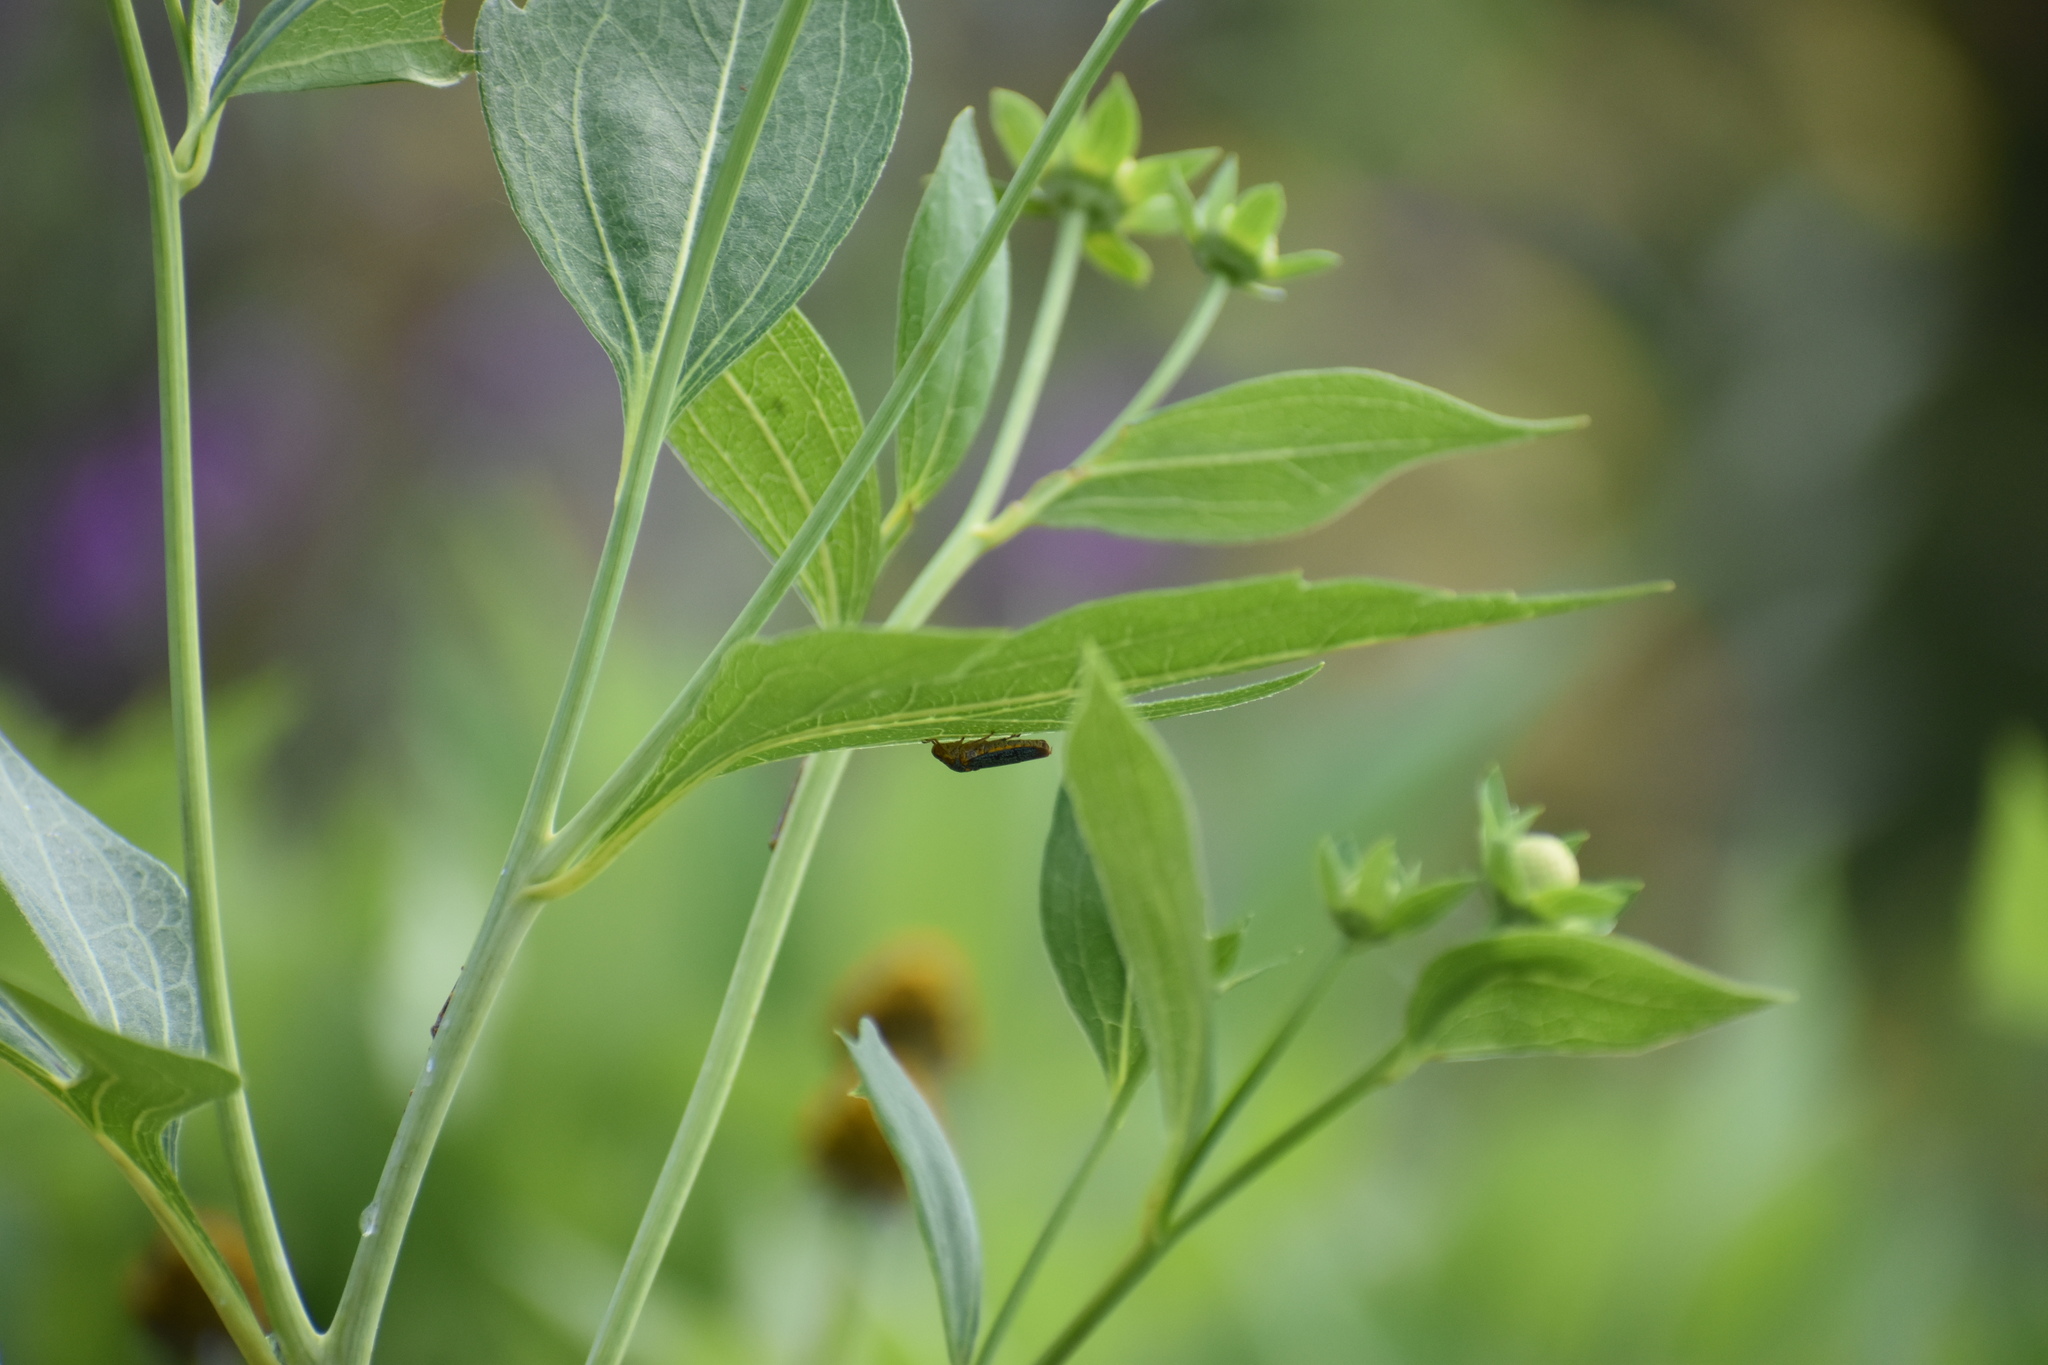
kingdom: Animalia
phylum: Arthropoda
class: Insecta
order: Hemiptera
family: Cicadellidae
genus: Oncometopia
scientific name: Oncometopia orbona
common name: Broad-headed sharpshooter
